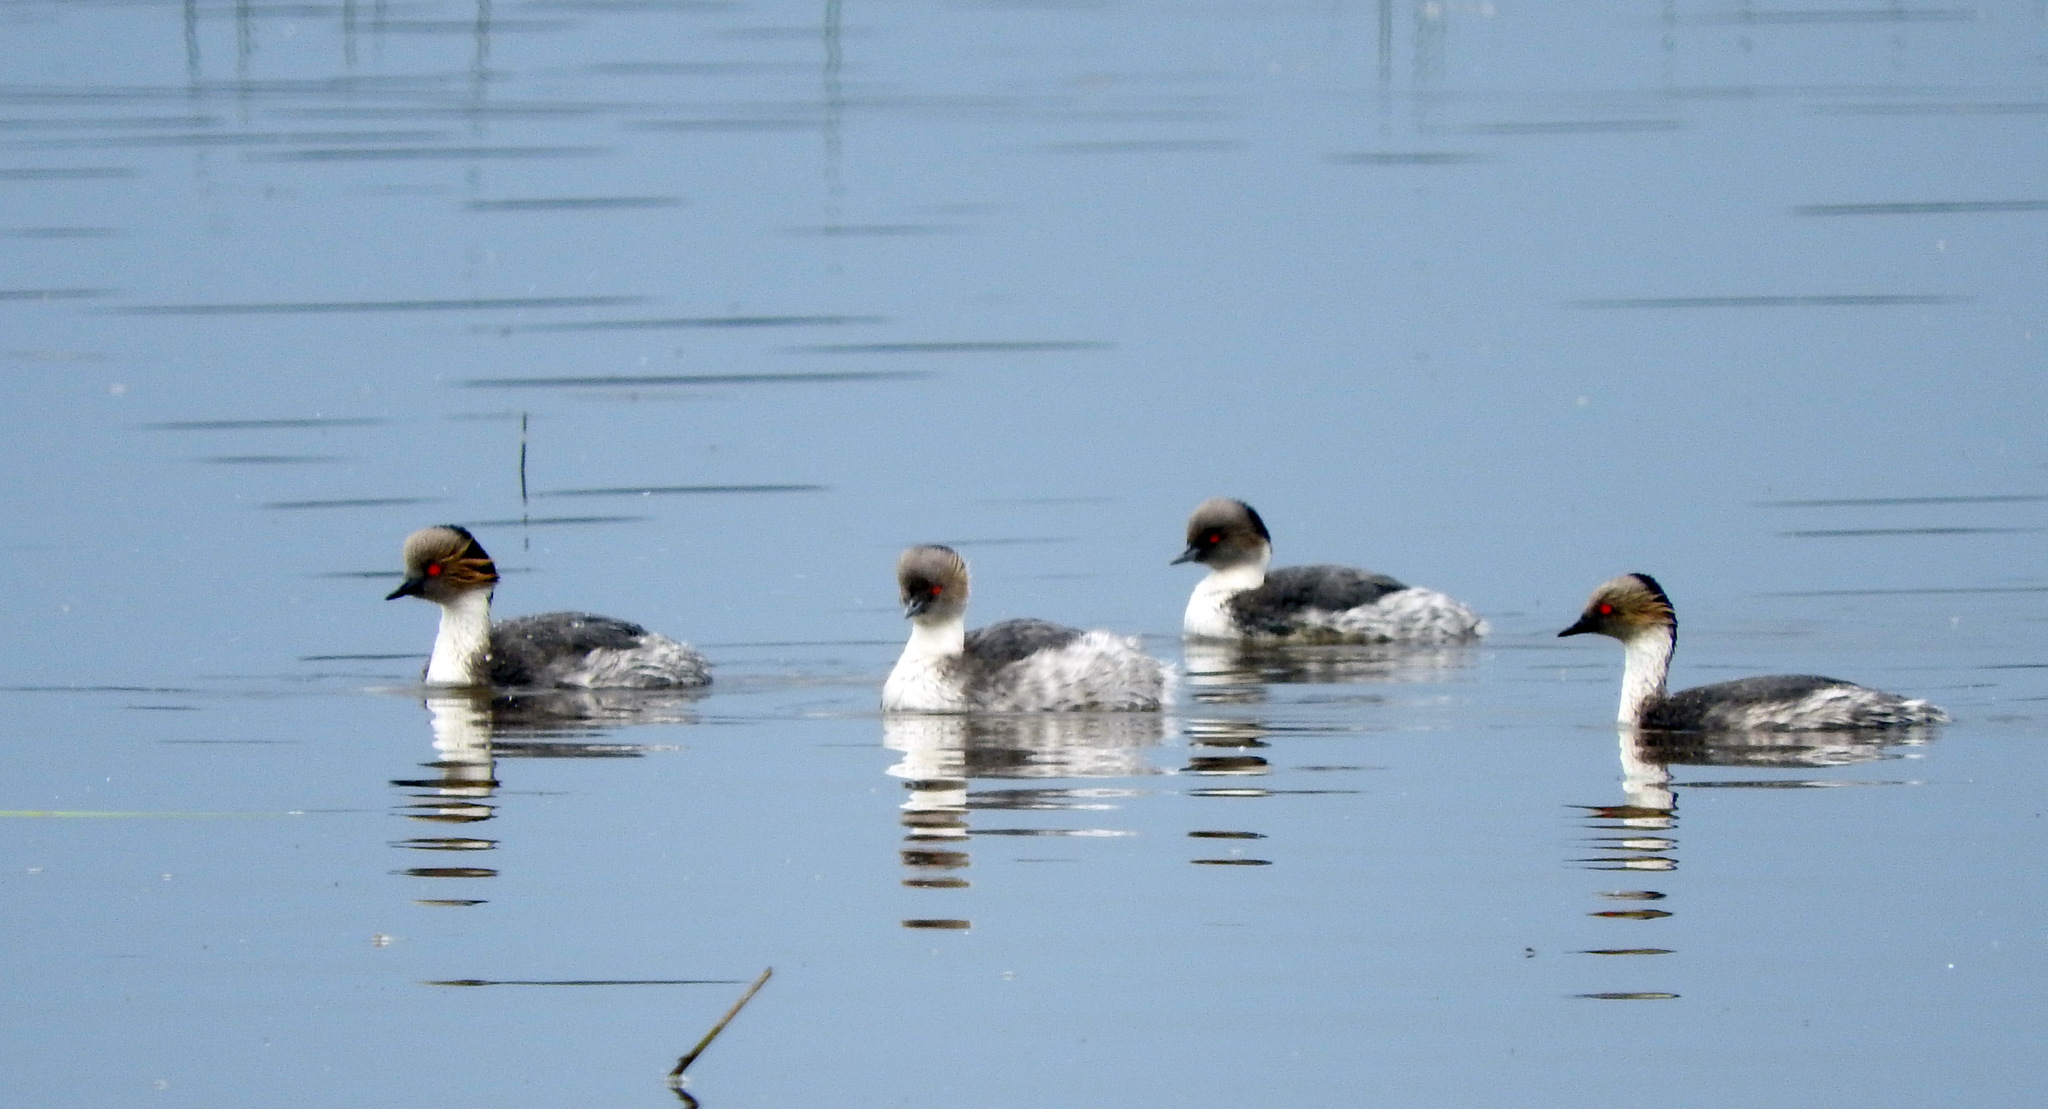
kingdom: Animalia
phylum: Chordata
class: Aves
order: Podicipediformes
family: Podicipedidae
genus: Podiceps
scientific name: Podiceps occipitalis
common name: Silvery grebe
